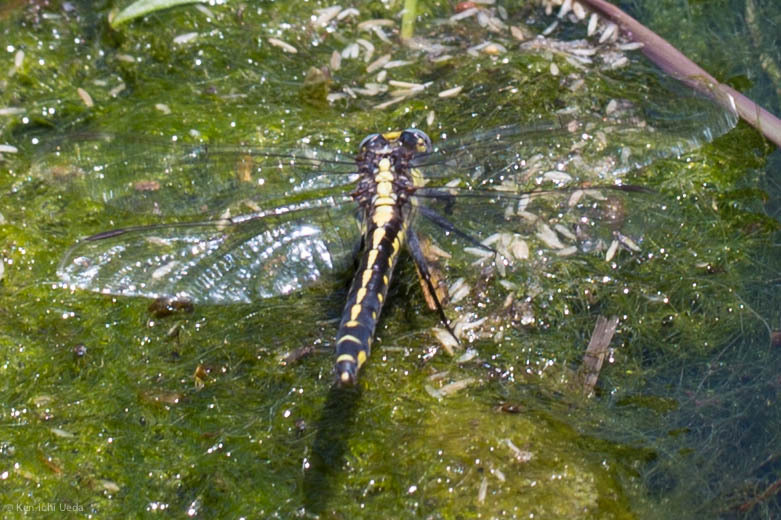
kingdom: Animalia
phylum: Arthropoda
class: Insecta
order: Odonata
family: Gomphidae
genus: Phanogomphus
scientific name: Phanogomphus kurilis
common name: Pacific clubtail
